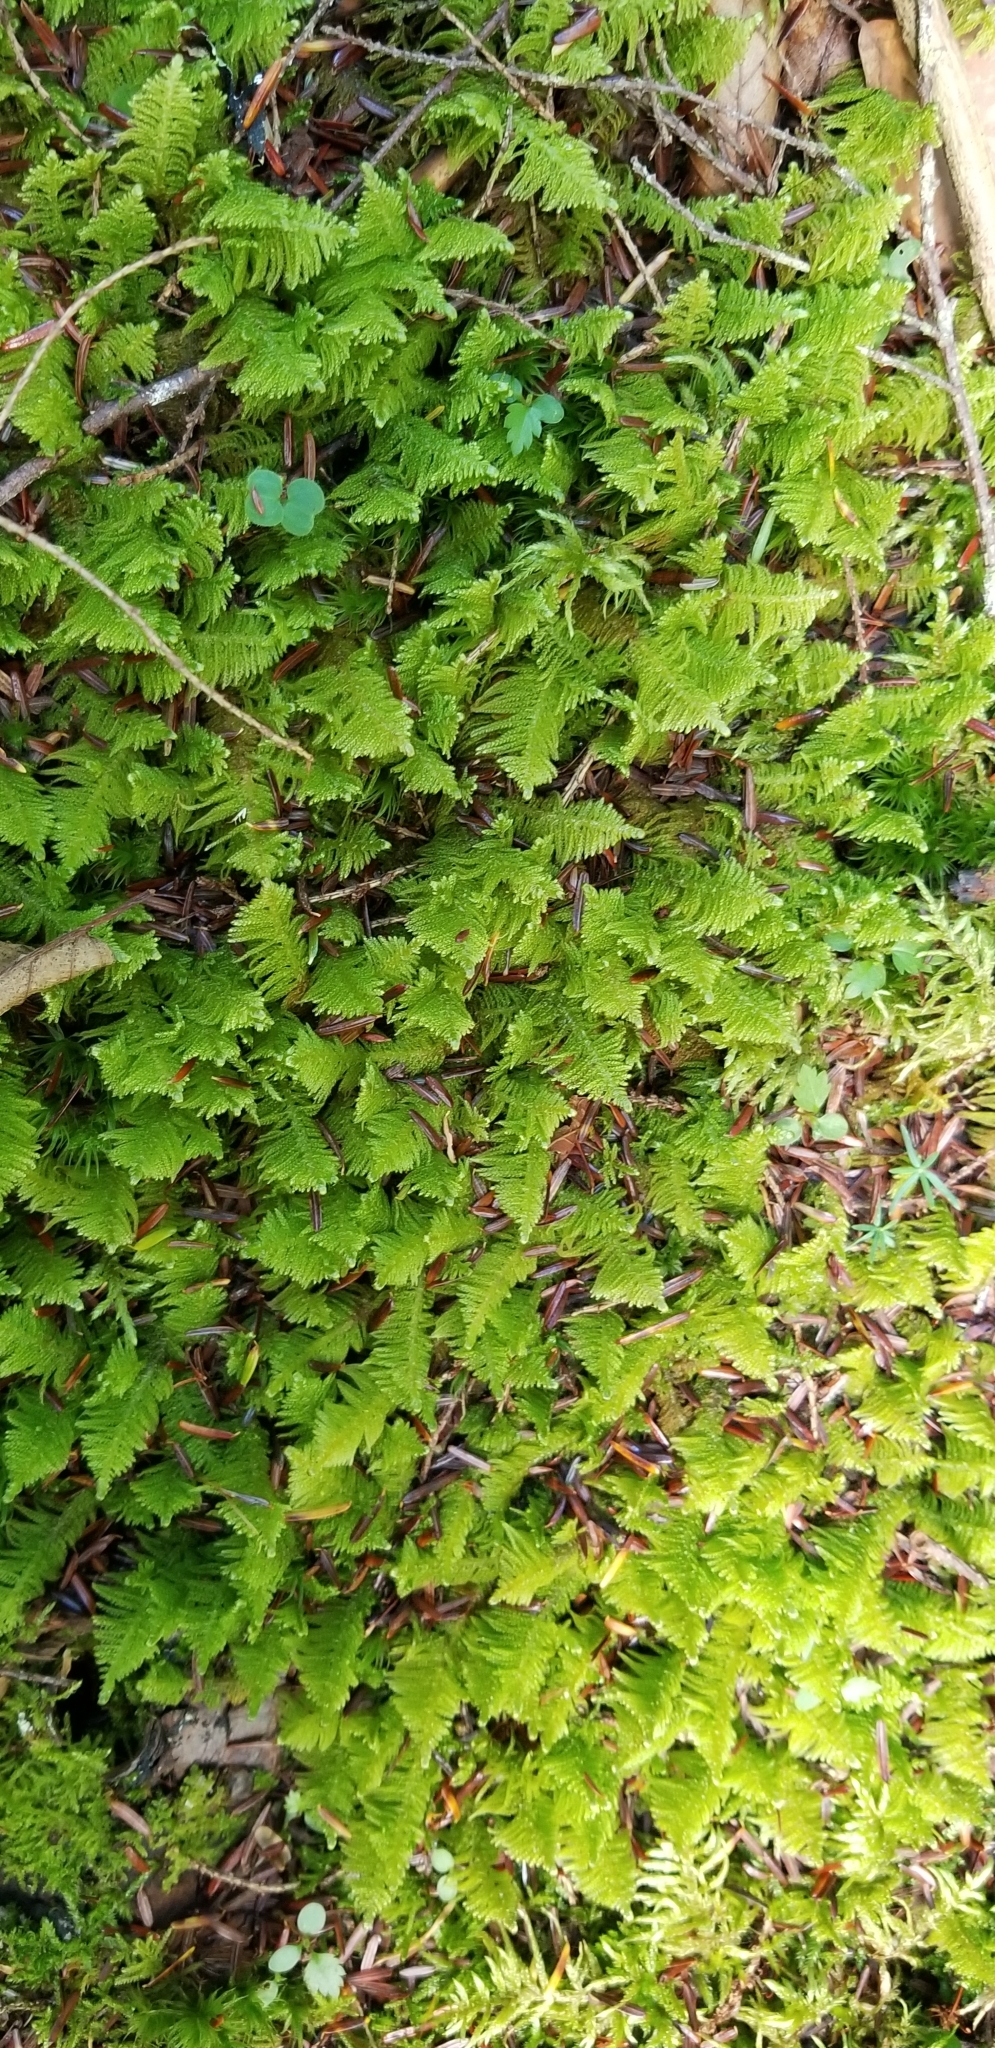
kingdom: Plantae
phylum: Bryophyta
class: Bryopsida
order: Hypnales
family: Pylaisiaceae
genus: Ptilium
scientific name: Ptilium crista-castrensis
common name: Knight's plume moss
